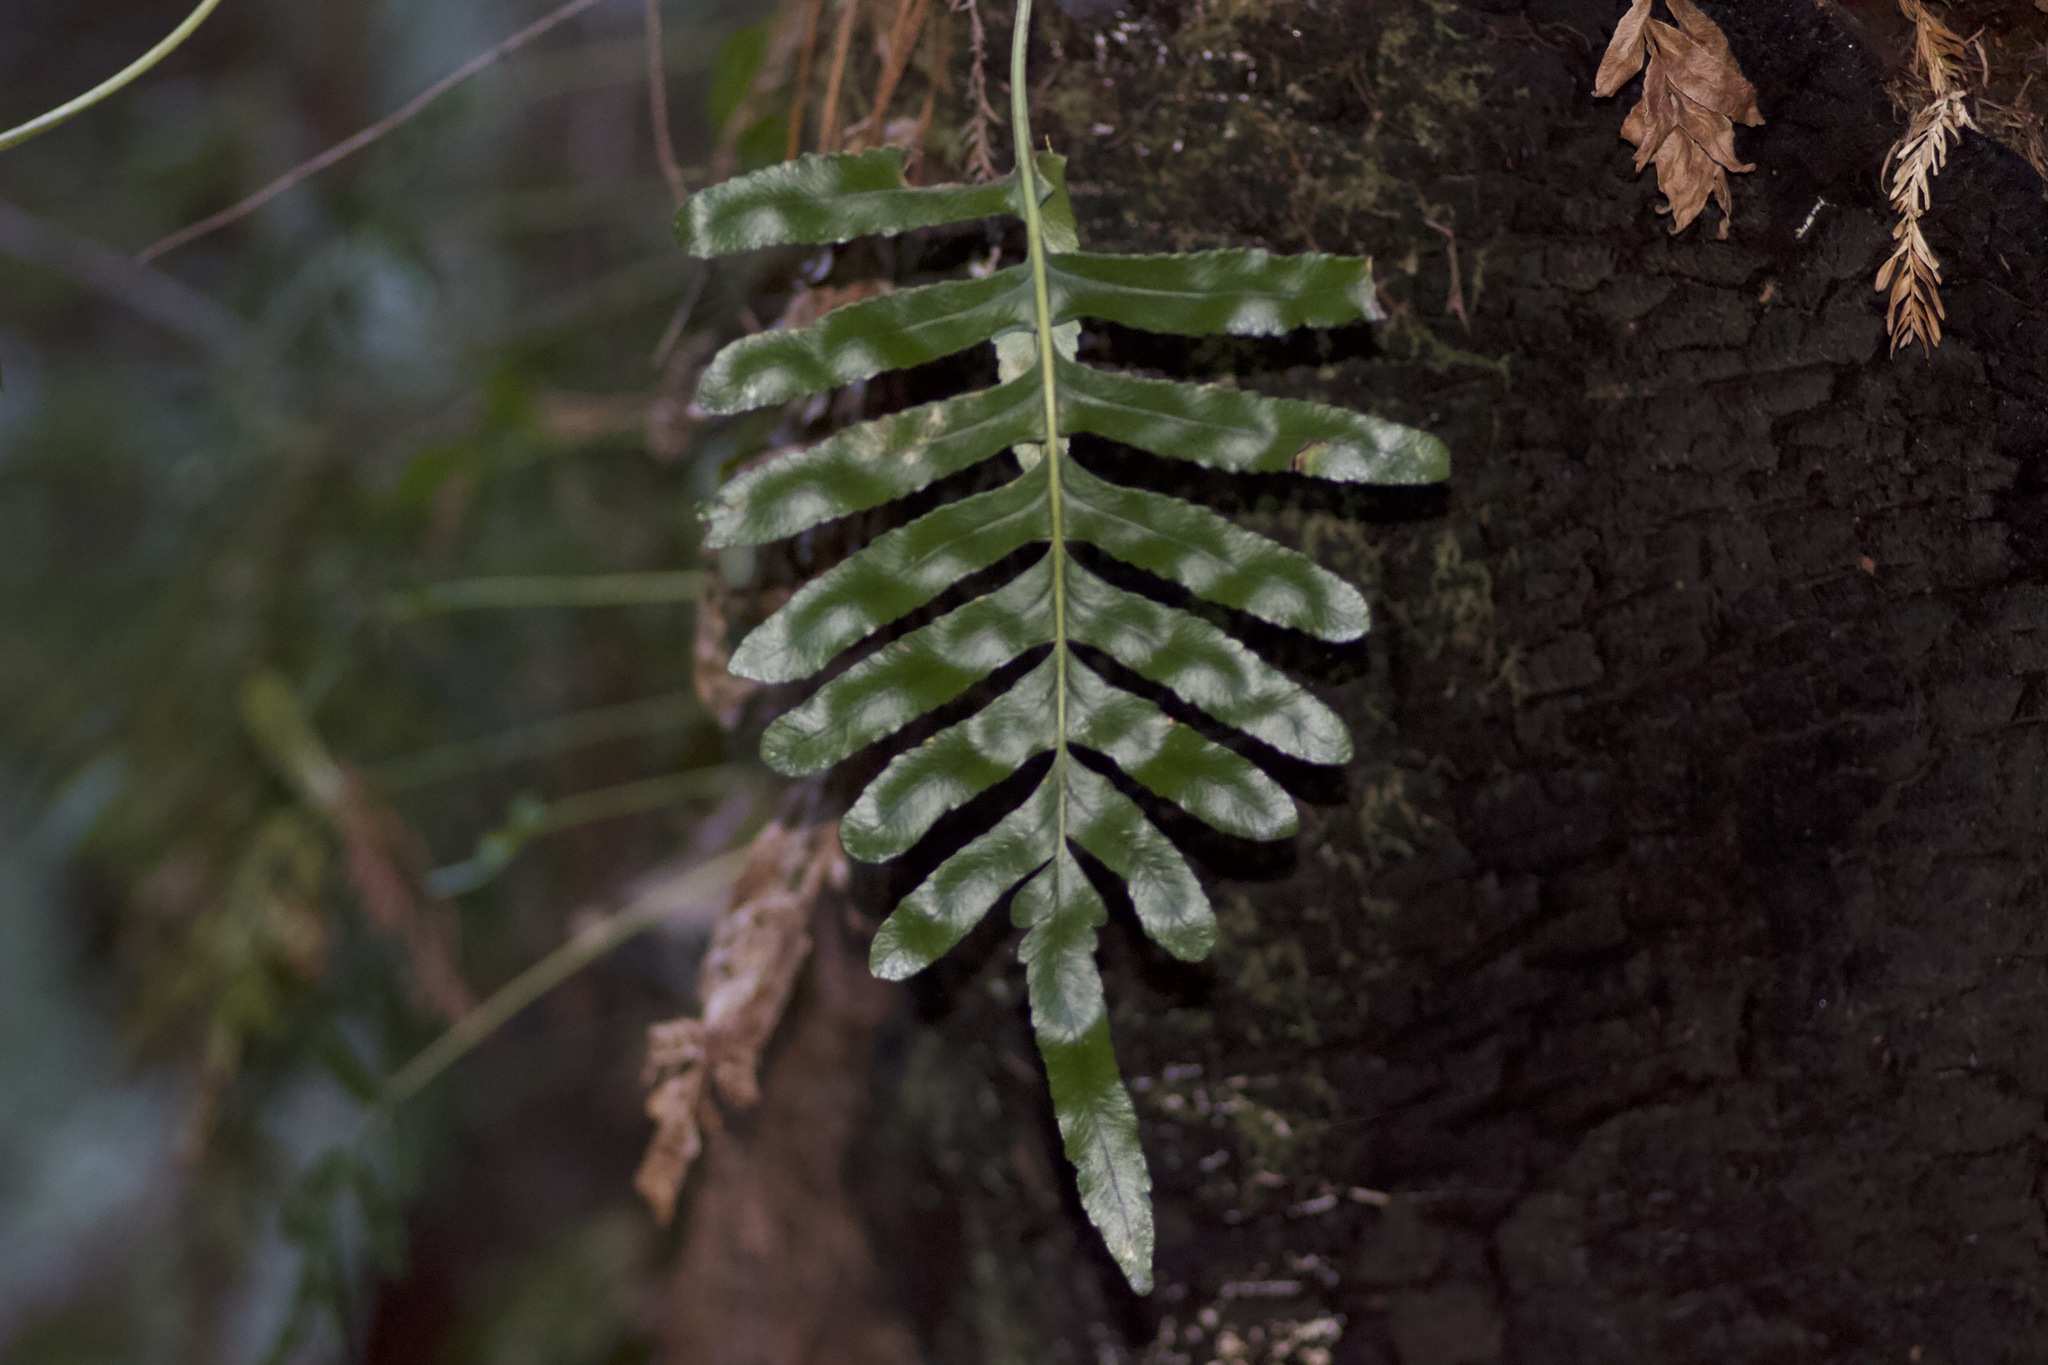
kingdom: Plantae
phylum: Tracheophyta
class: Polypodiopsida
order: Polypodiales
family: Polypodiaceae
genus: Polypodium
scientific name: Polypodium scouleri
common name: Scouler's polypody
